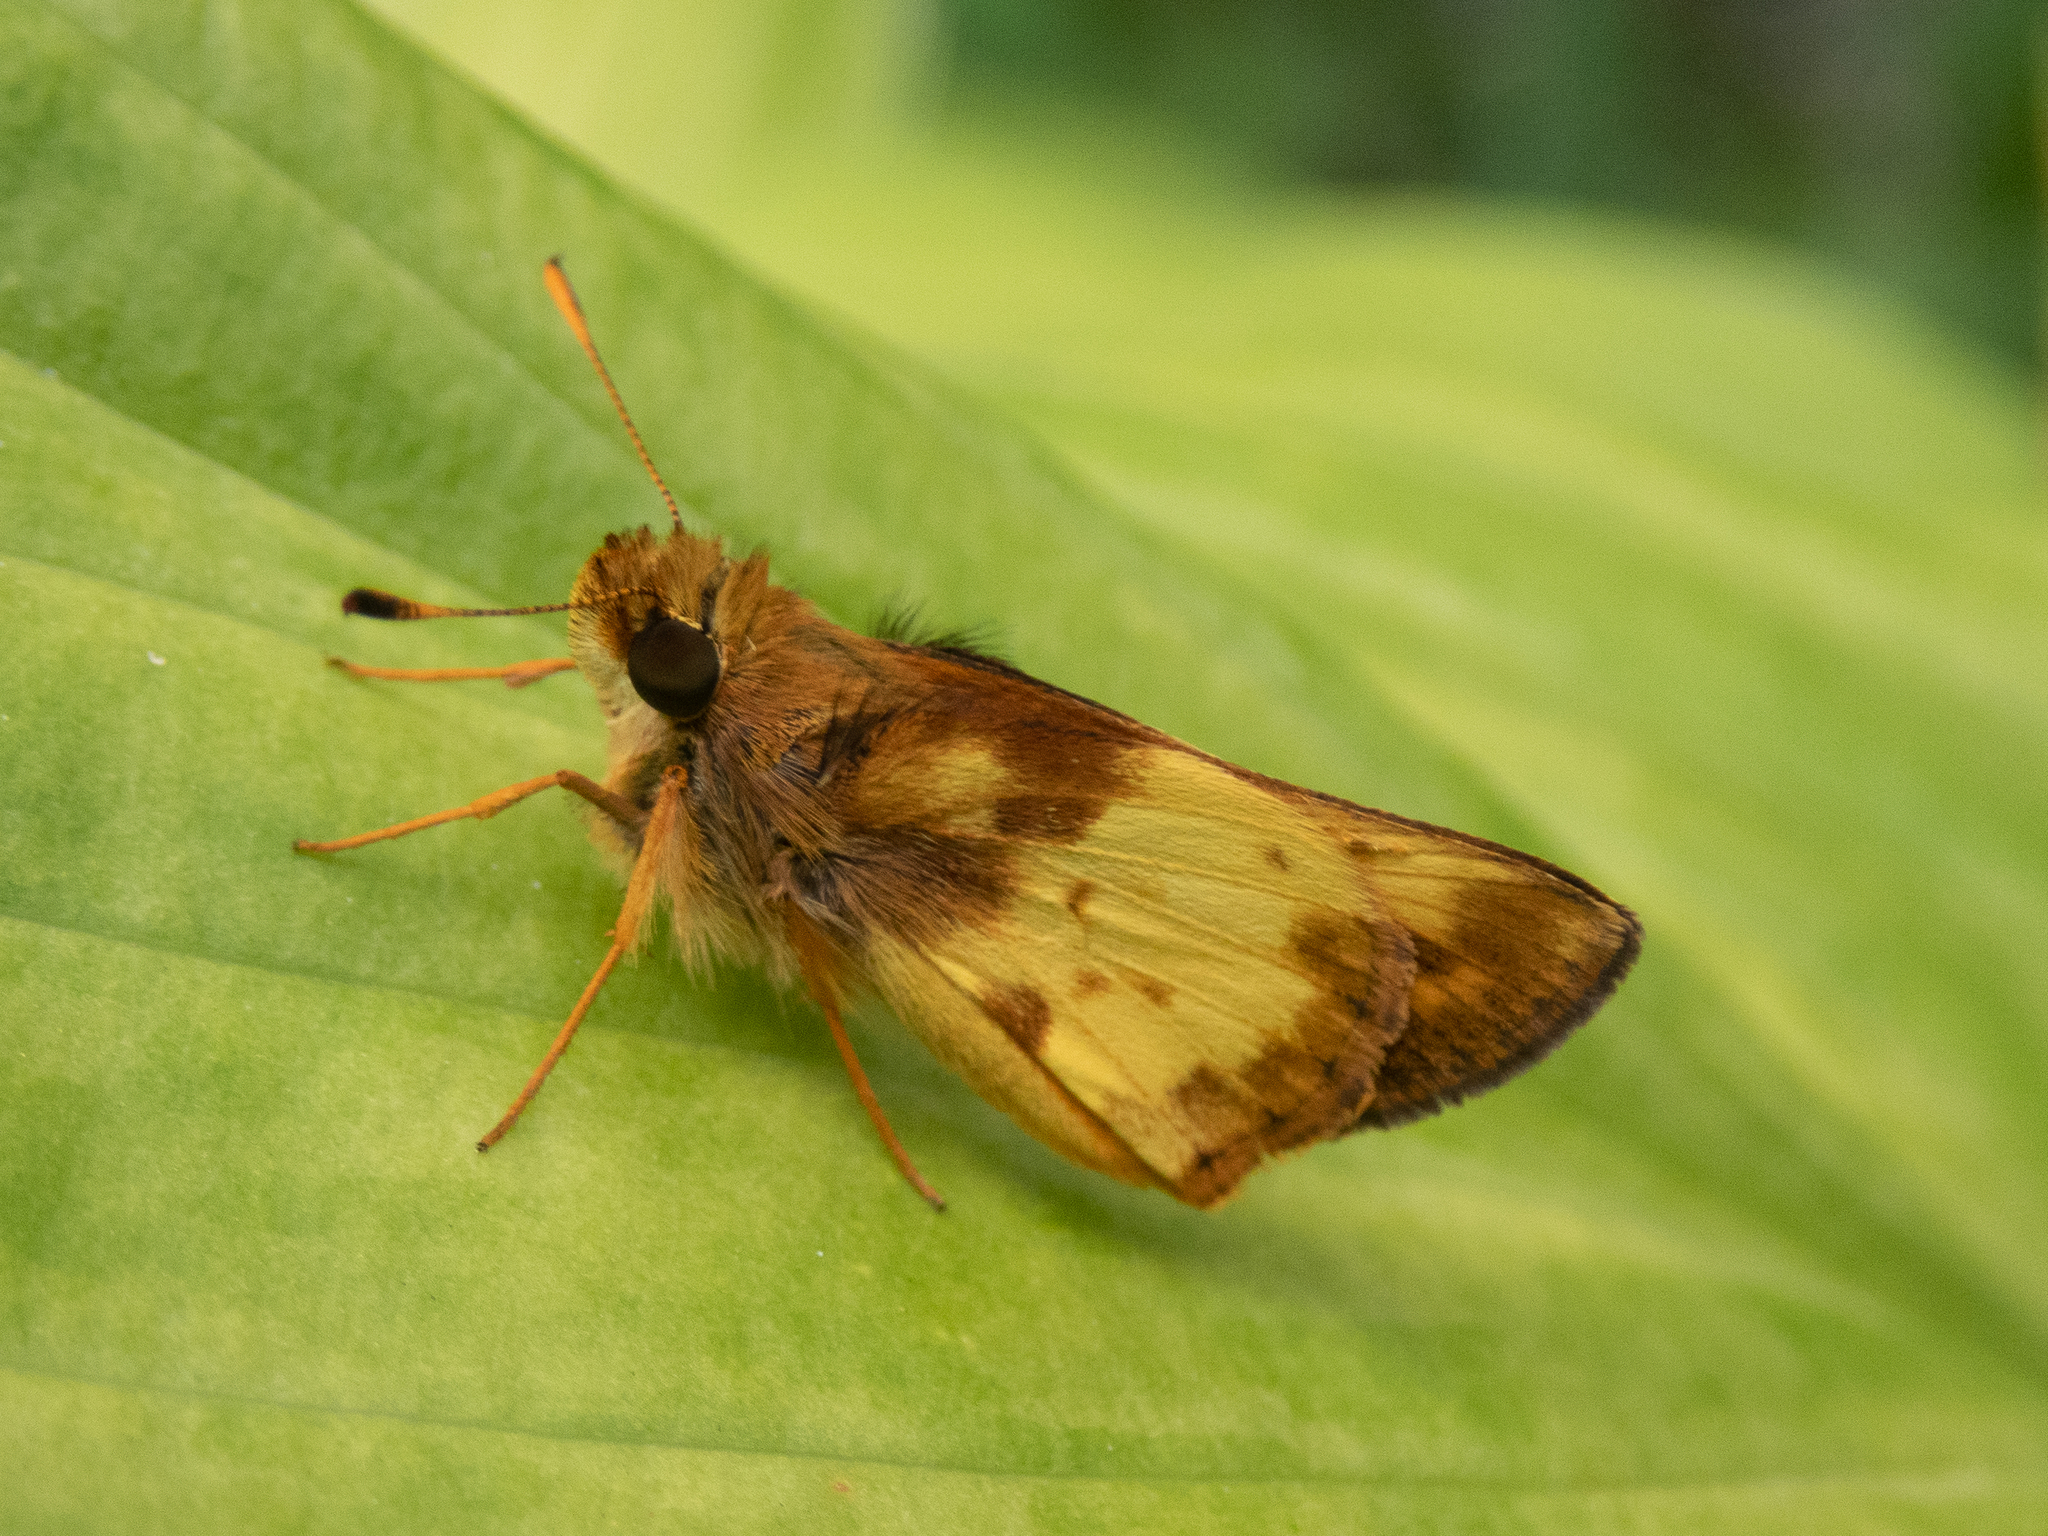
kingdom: Animalia
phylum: Arthropoda
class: Insecta
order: Lepidoptera
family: Hesperiidae
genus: Lon
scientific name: Lon zabulon
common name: Zabulon skipper
